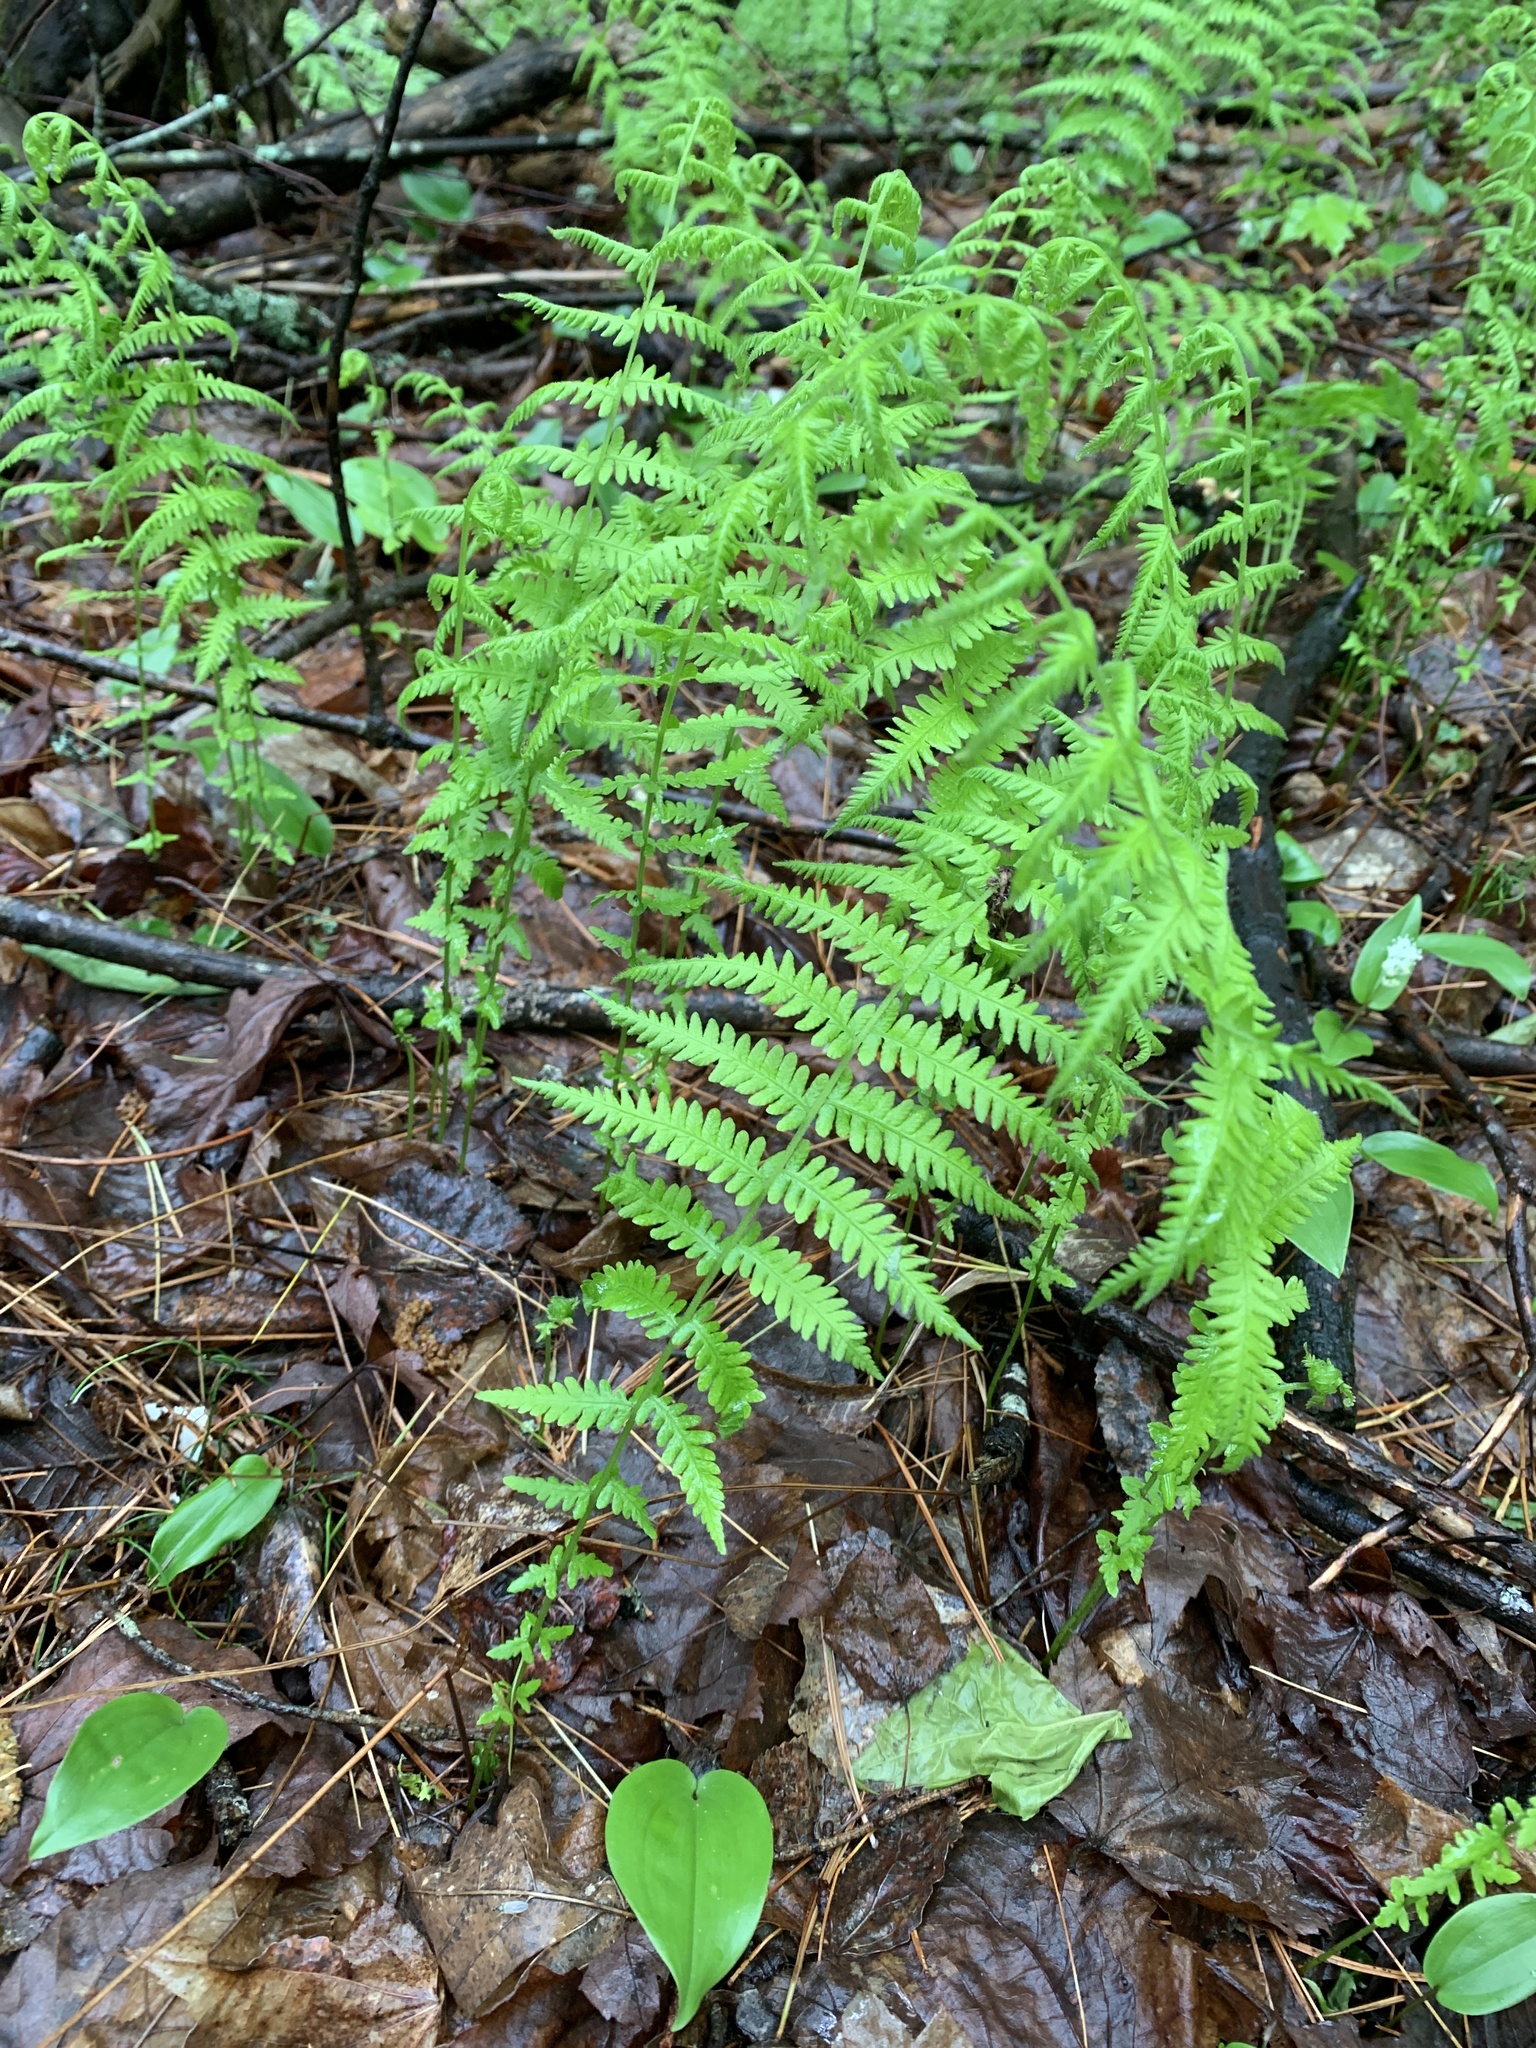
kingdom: Plantae
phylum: Tracheophyta
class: Polypodiopsida
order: Polypodiales
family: Thelypteridaceae
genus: Amauropelta
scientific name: Amauropelta noveboracensis
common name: New york fern
